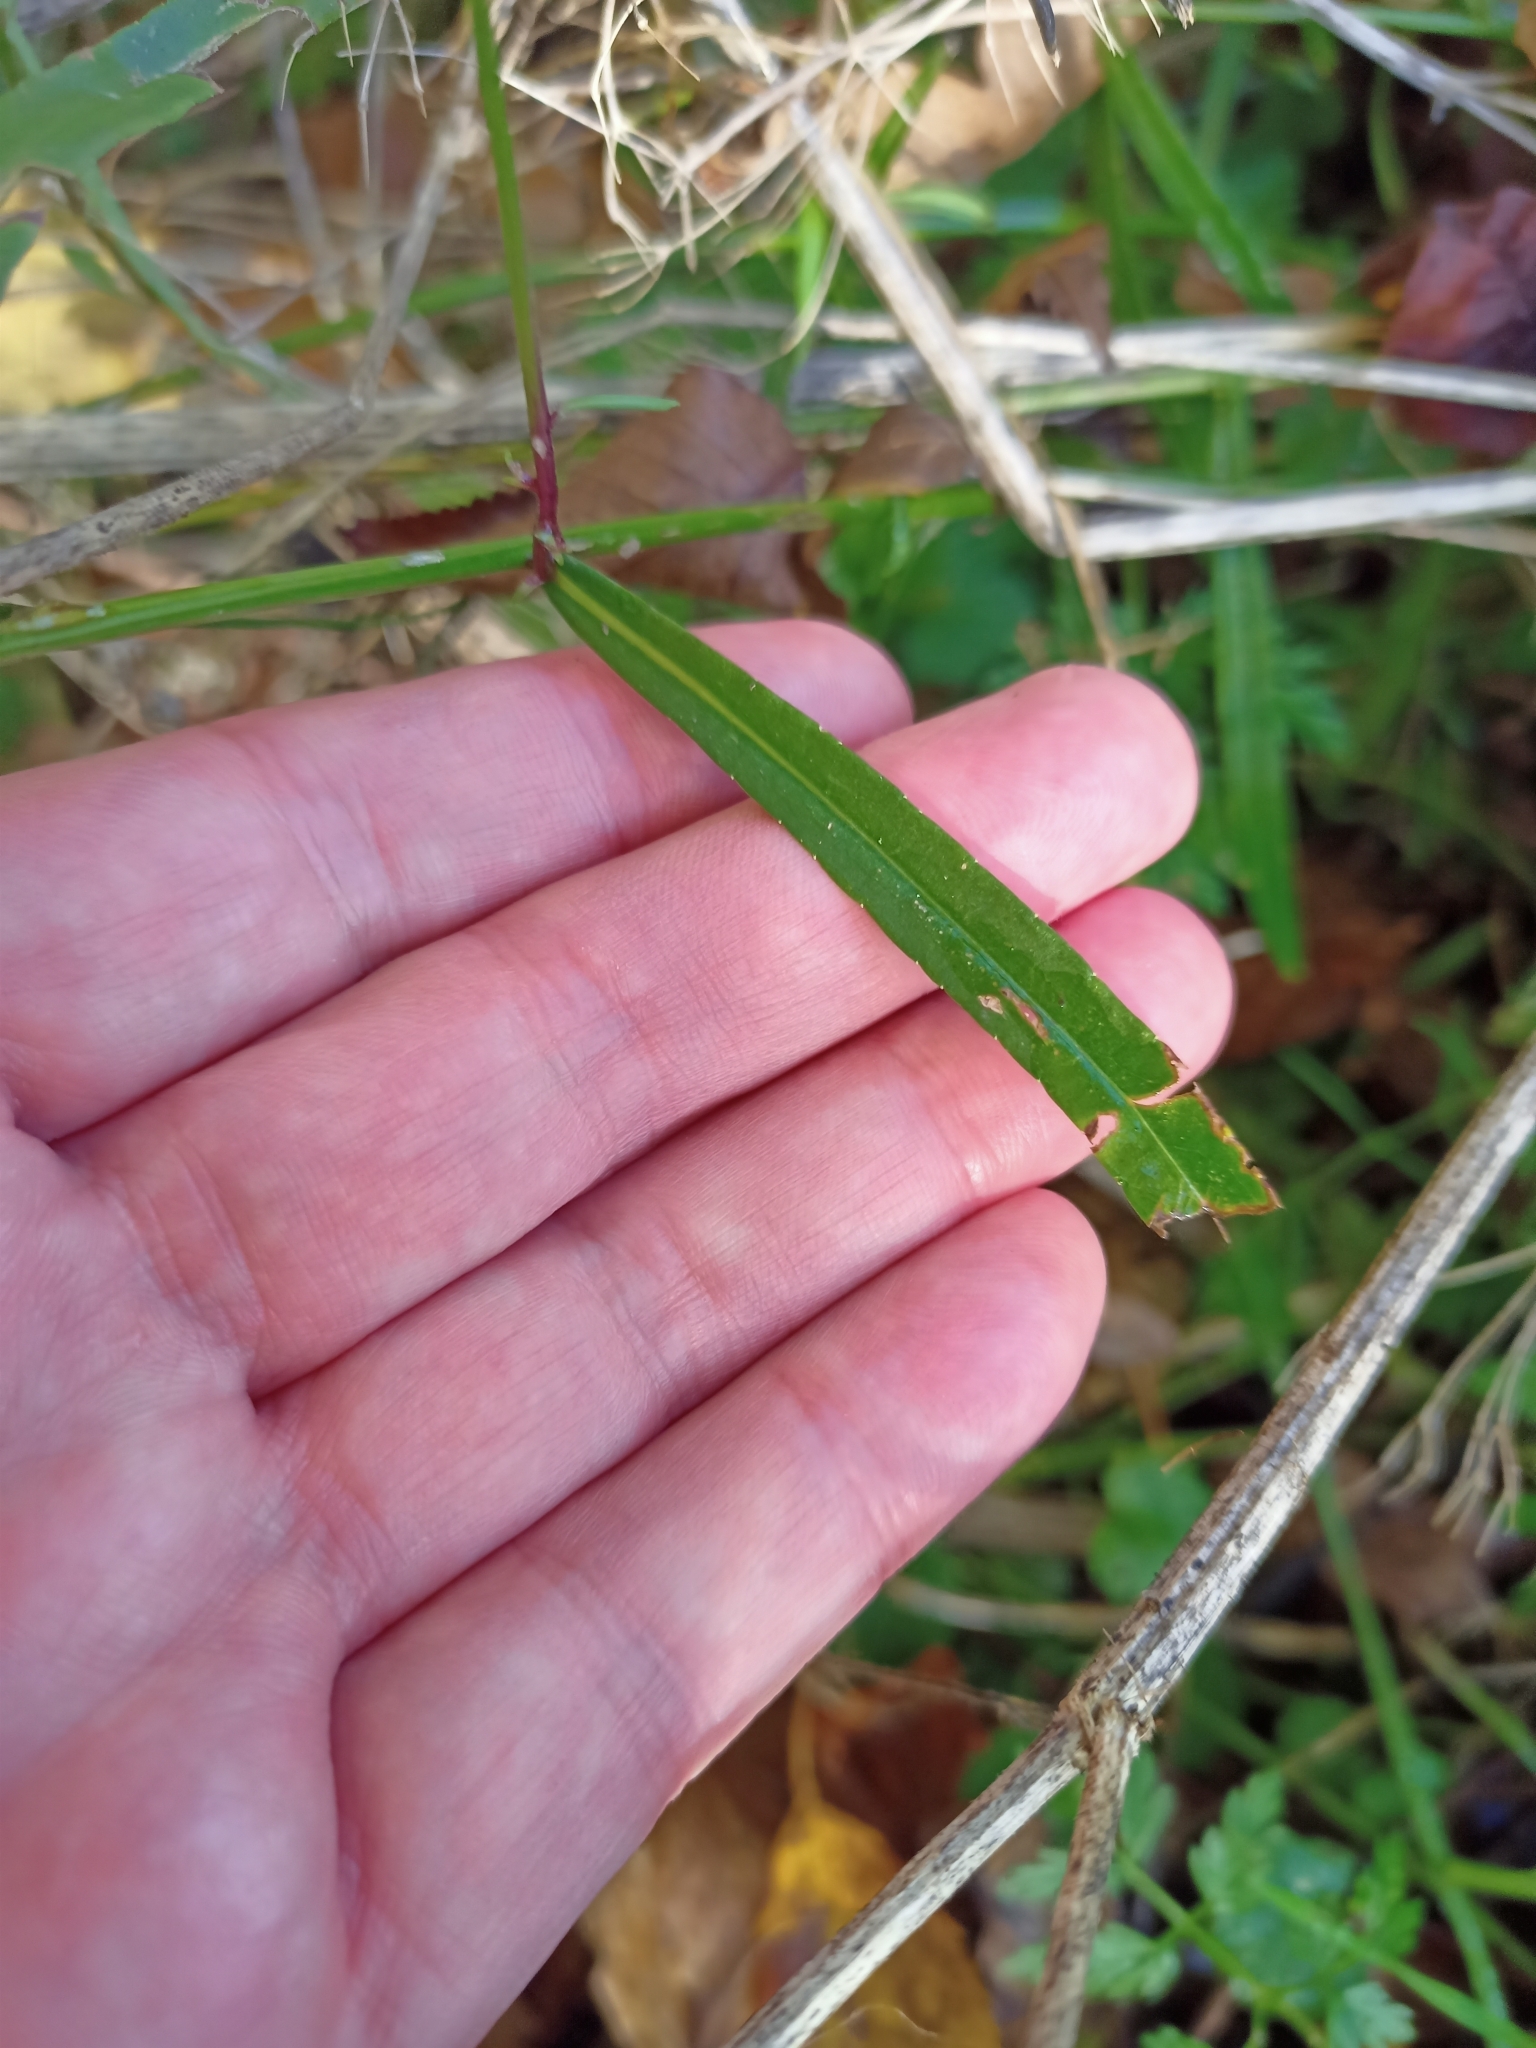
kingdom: Plantae
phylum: Tracheophyta
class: Magnoliopsida
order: Asterales
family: Campanulaceae
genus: Campanula
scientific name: Campanula persicifolia
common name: Peach-leaved bellflower
